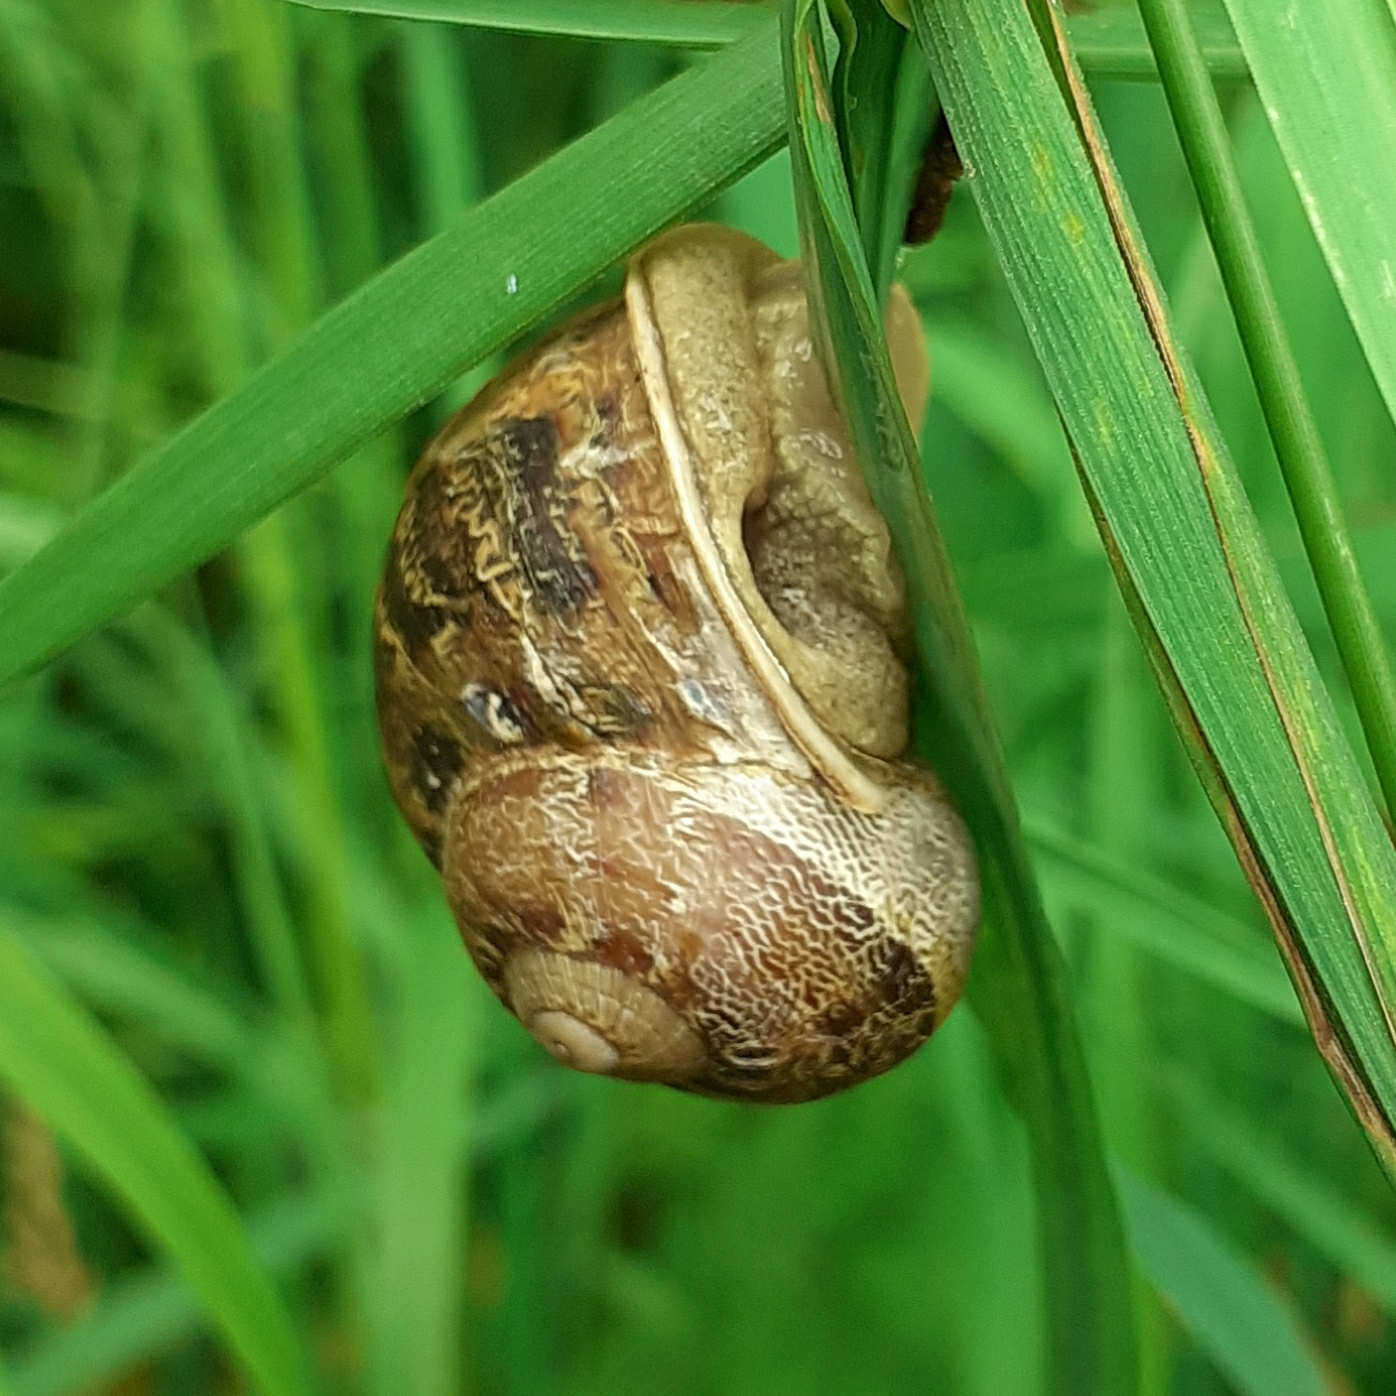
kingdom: Animalia
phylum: Mollusca
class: Gastropoda
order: Stylommatophora
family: Helicidae
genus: Cornu
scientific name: Cornu aspersum
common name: Brown garden snail
